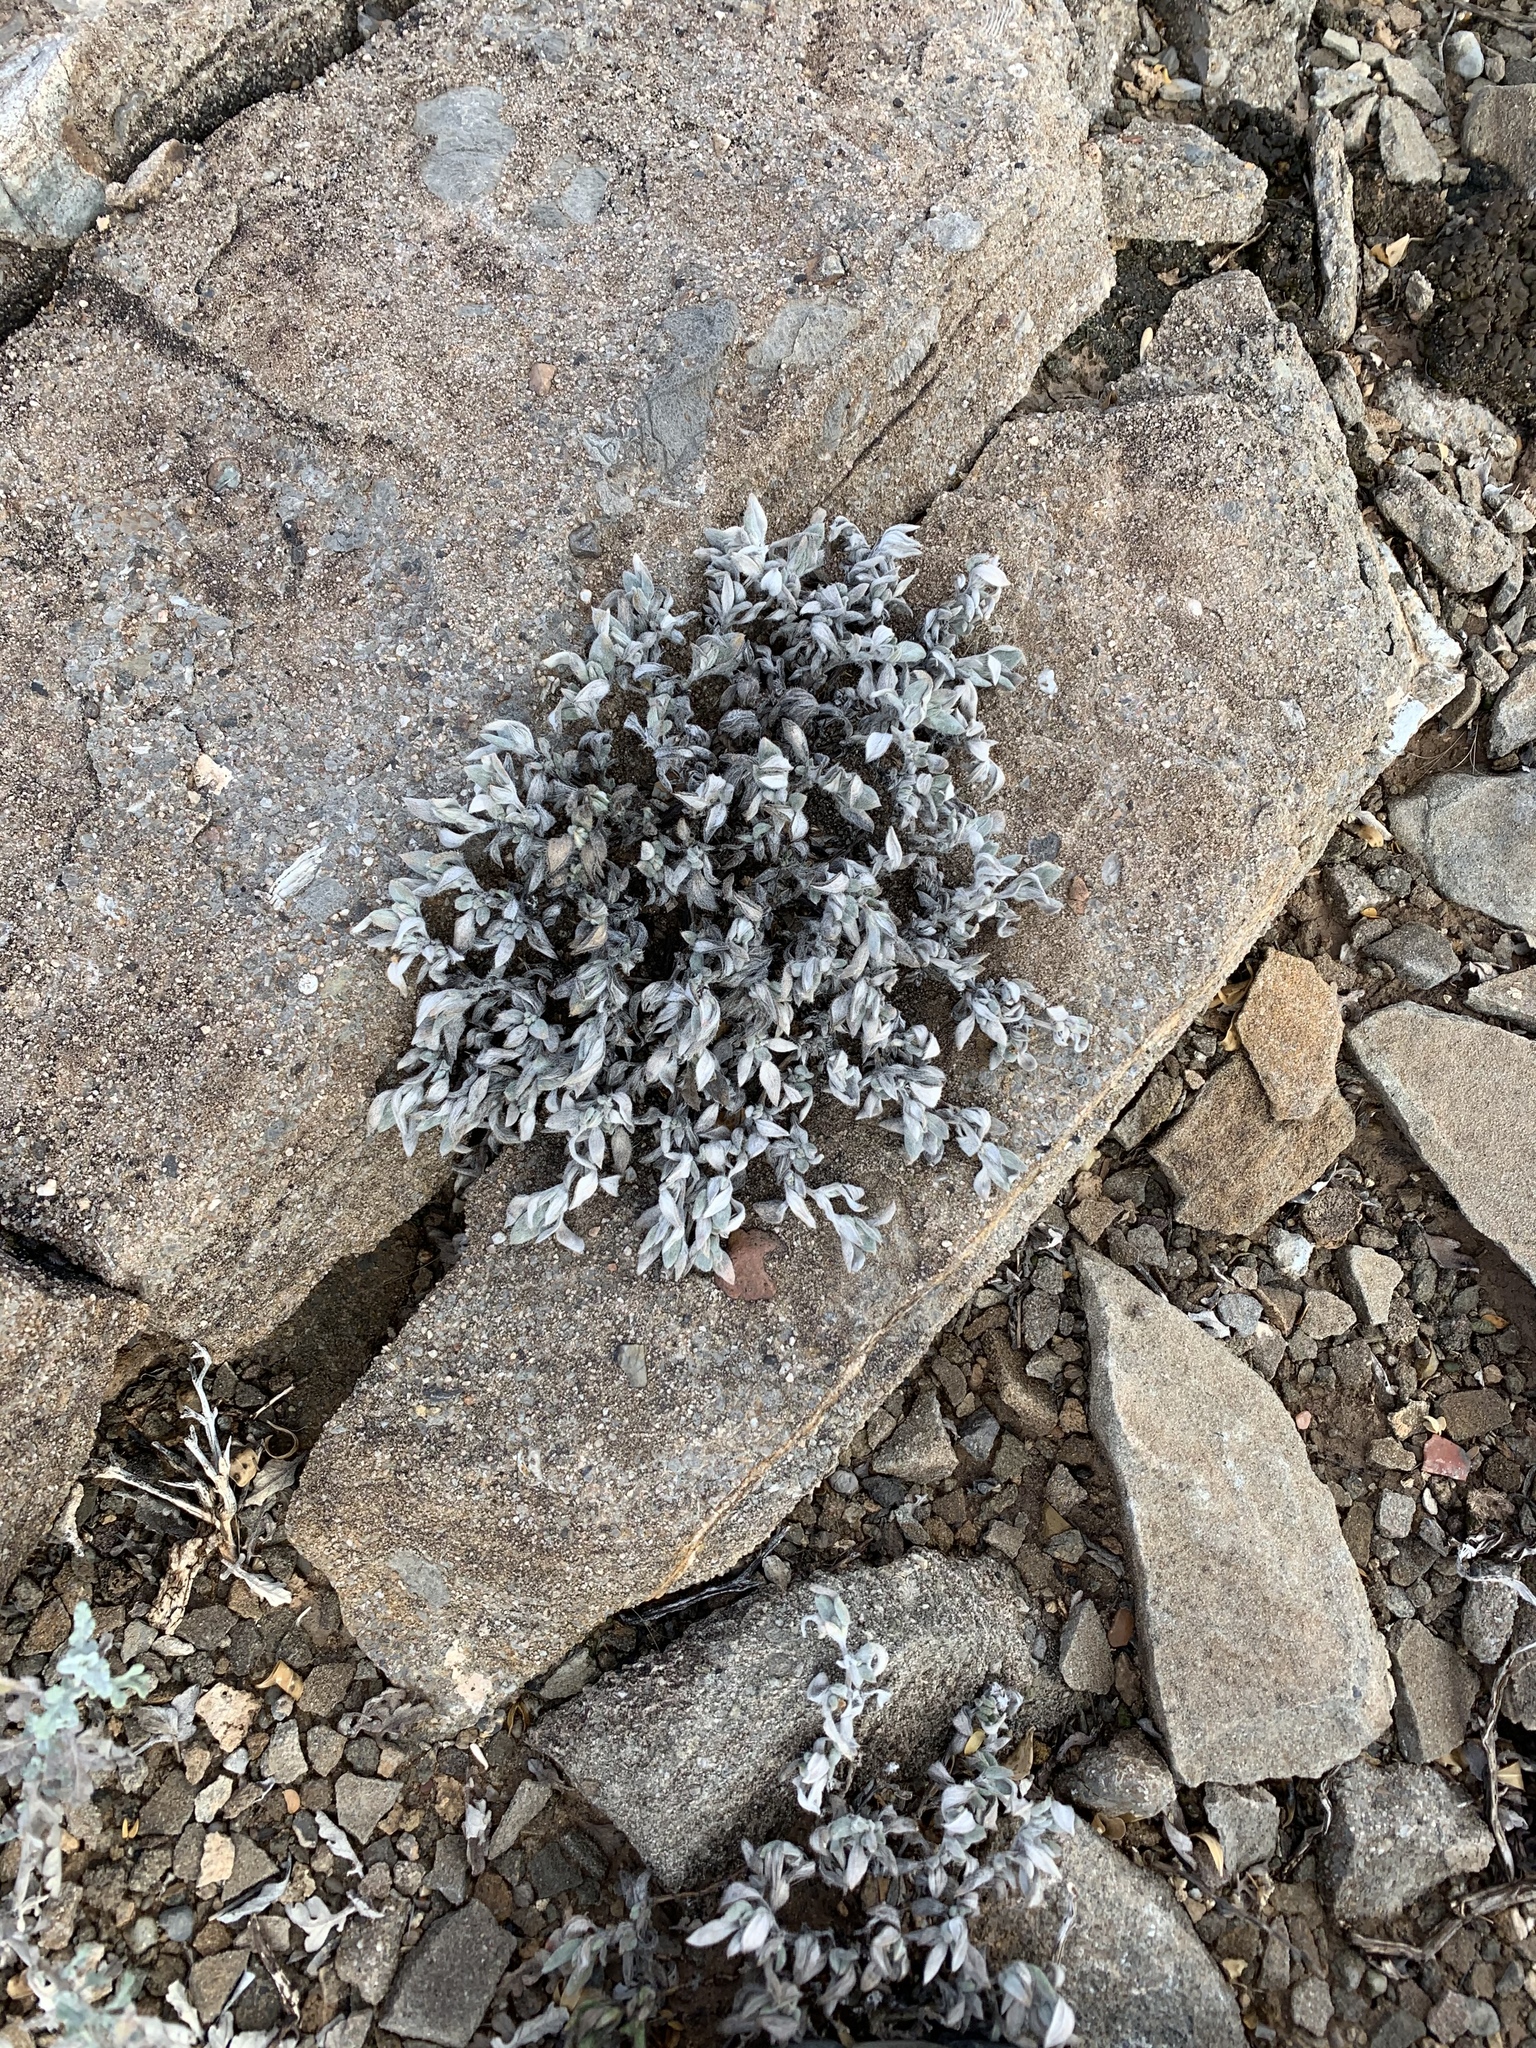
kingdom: Plantae
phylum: Tracheophyta
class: Magnoliopsida
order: Boraginales
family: Ehretiaceae
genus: Tiquilia
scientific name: Tiquilia canescens
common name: Hairy tiquilia
